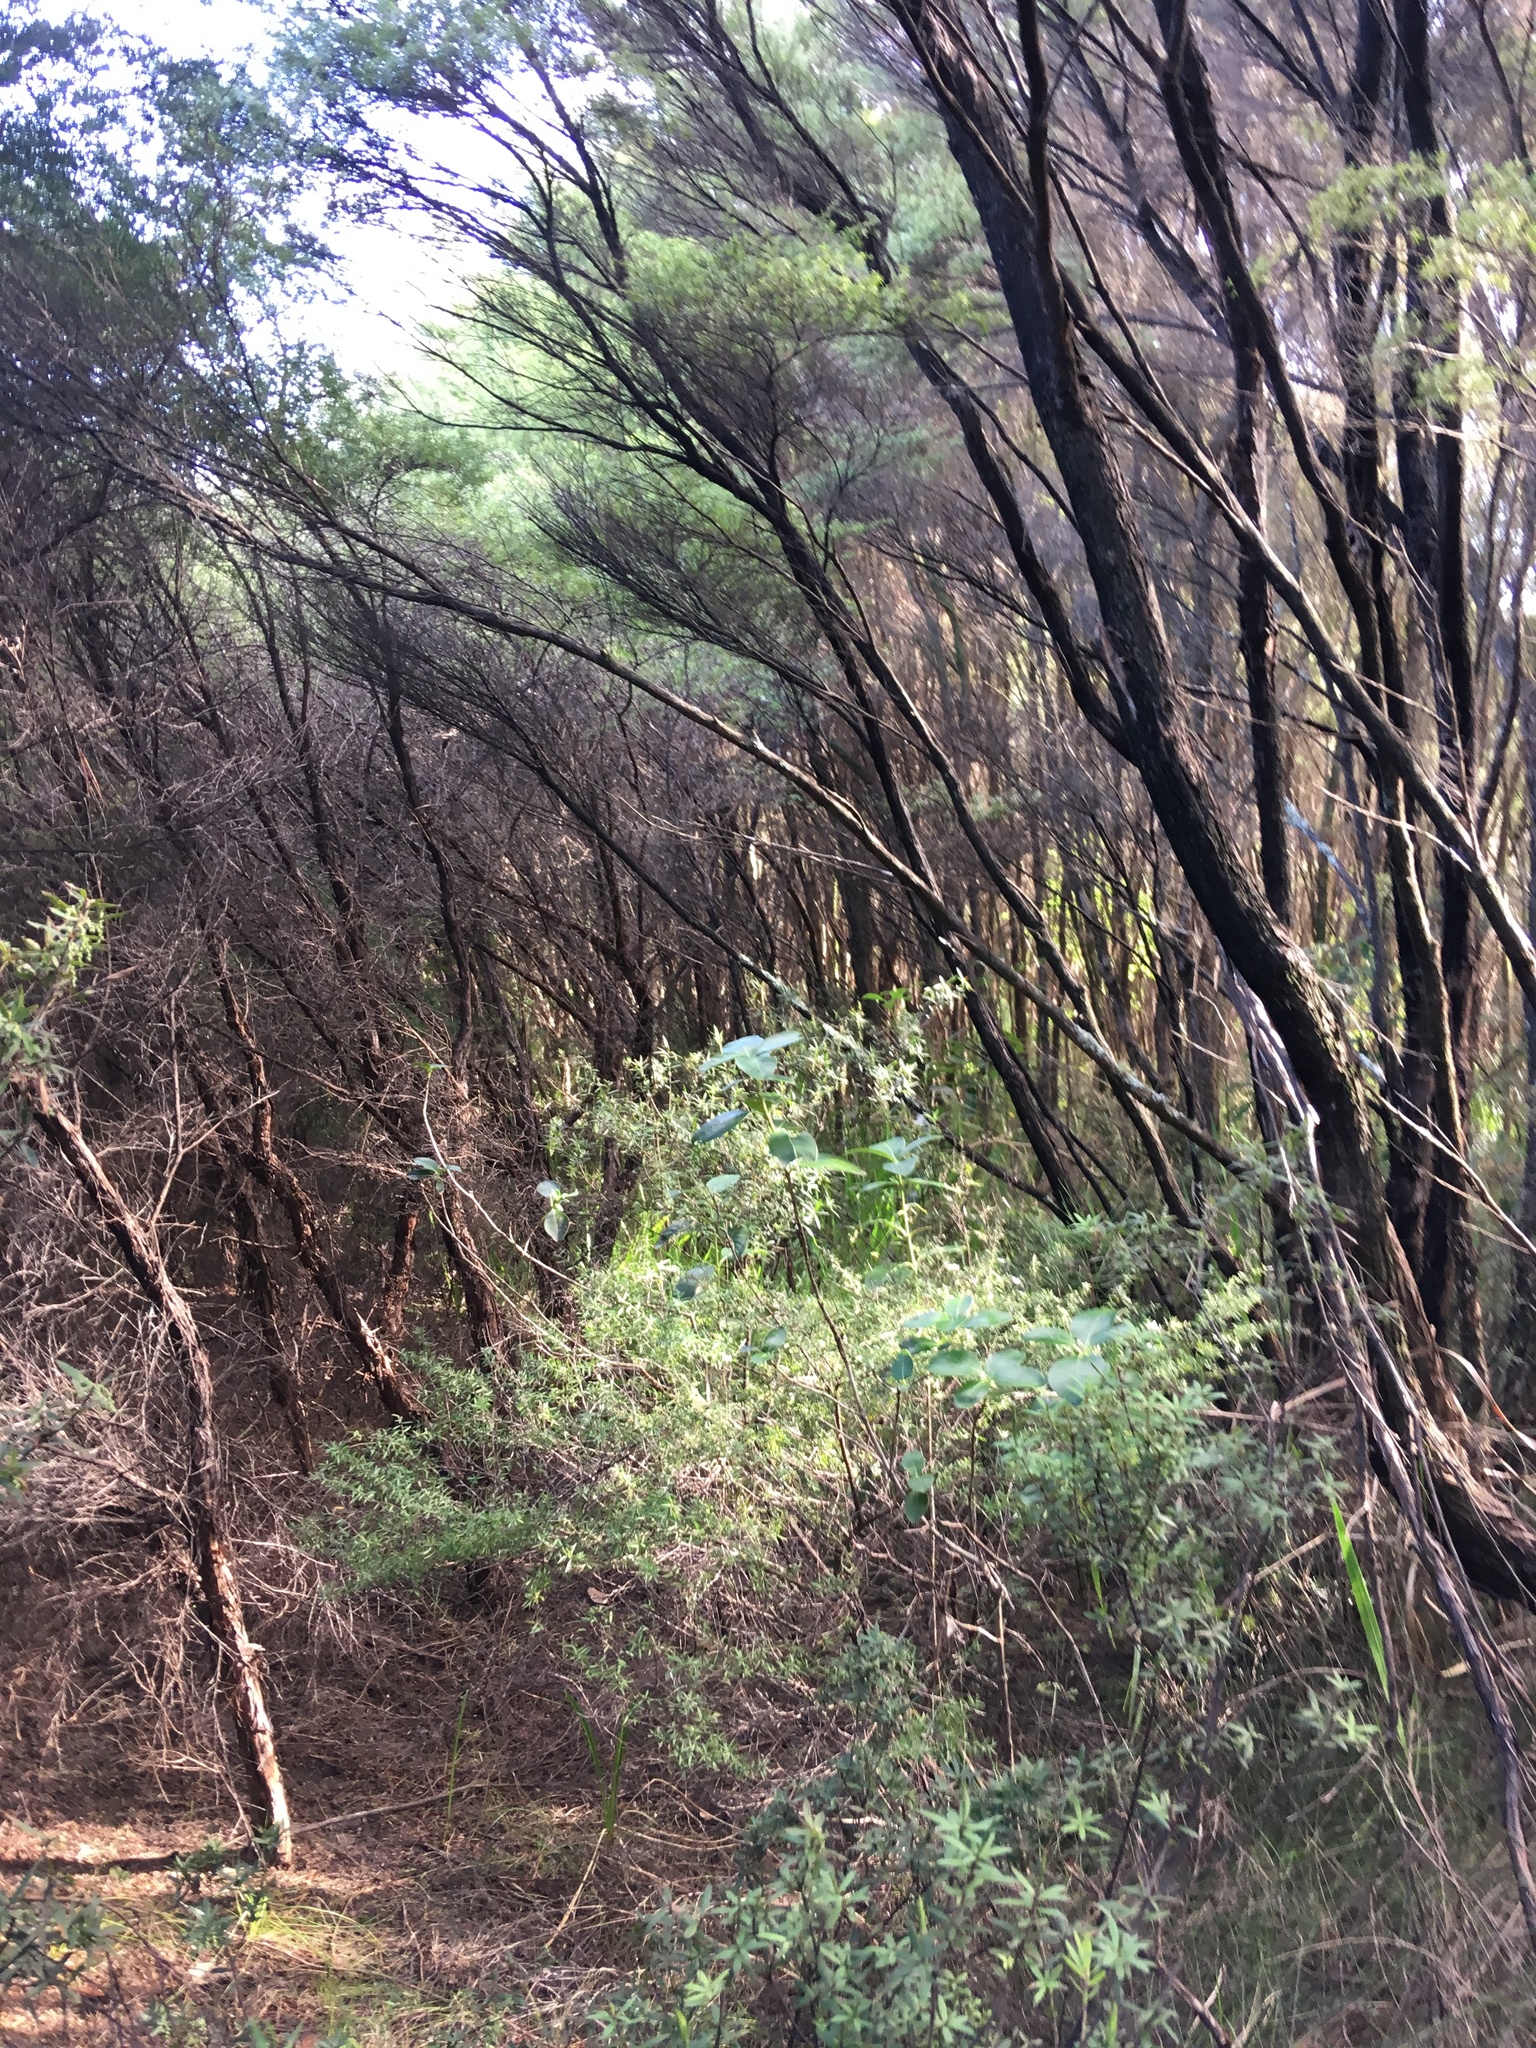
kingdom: Plantae
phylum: Tracheophyta
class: Magnoliopsida
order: Myrtales
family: Myrtaceae
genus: Leptospermum
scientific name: Leptospermum scoparium
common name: Broom tea-tree
